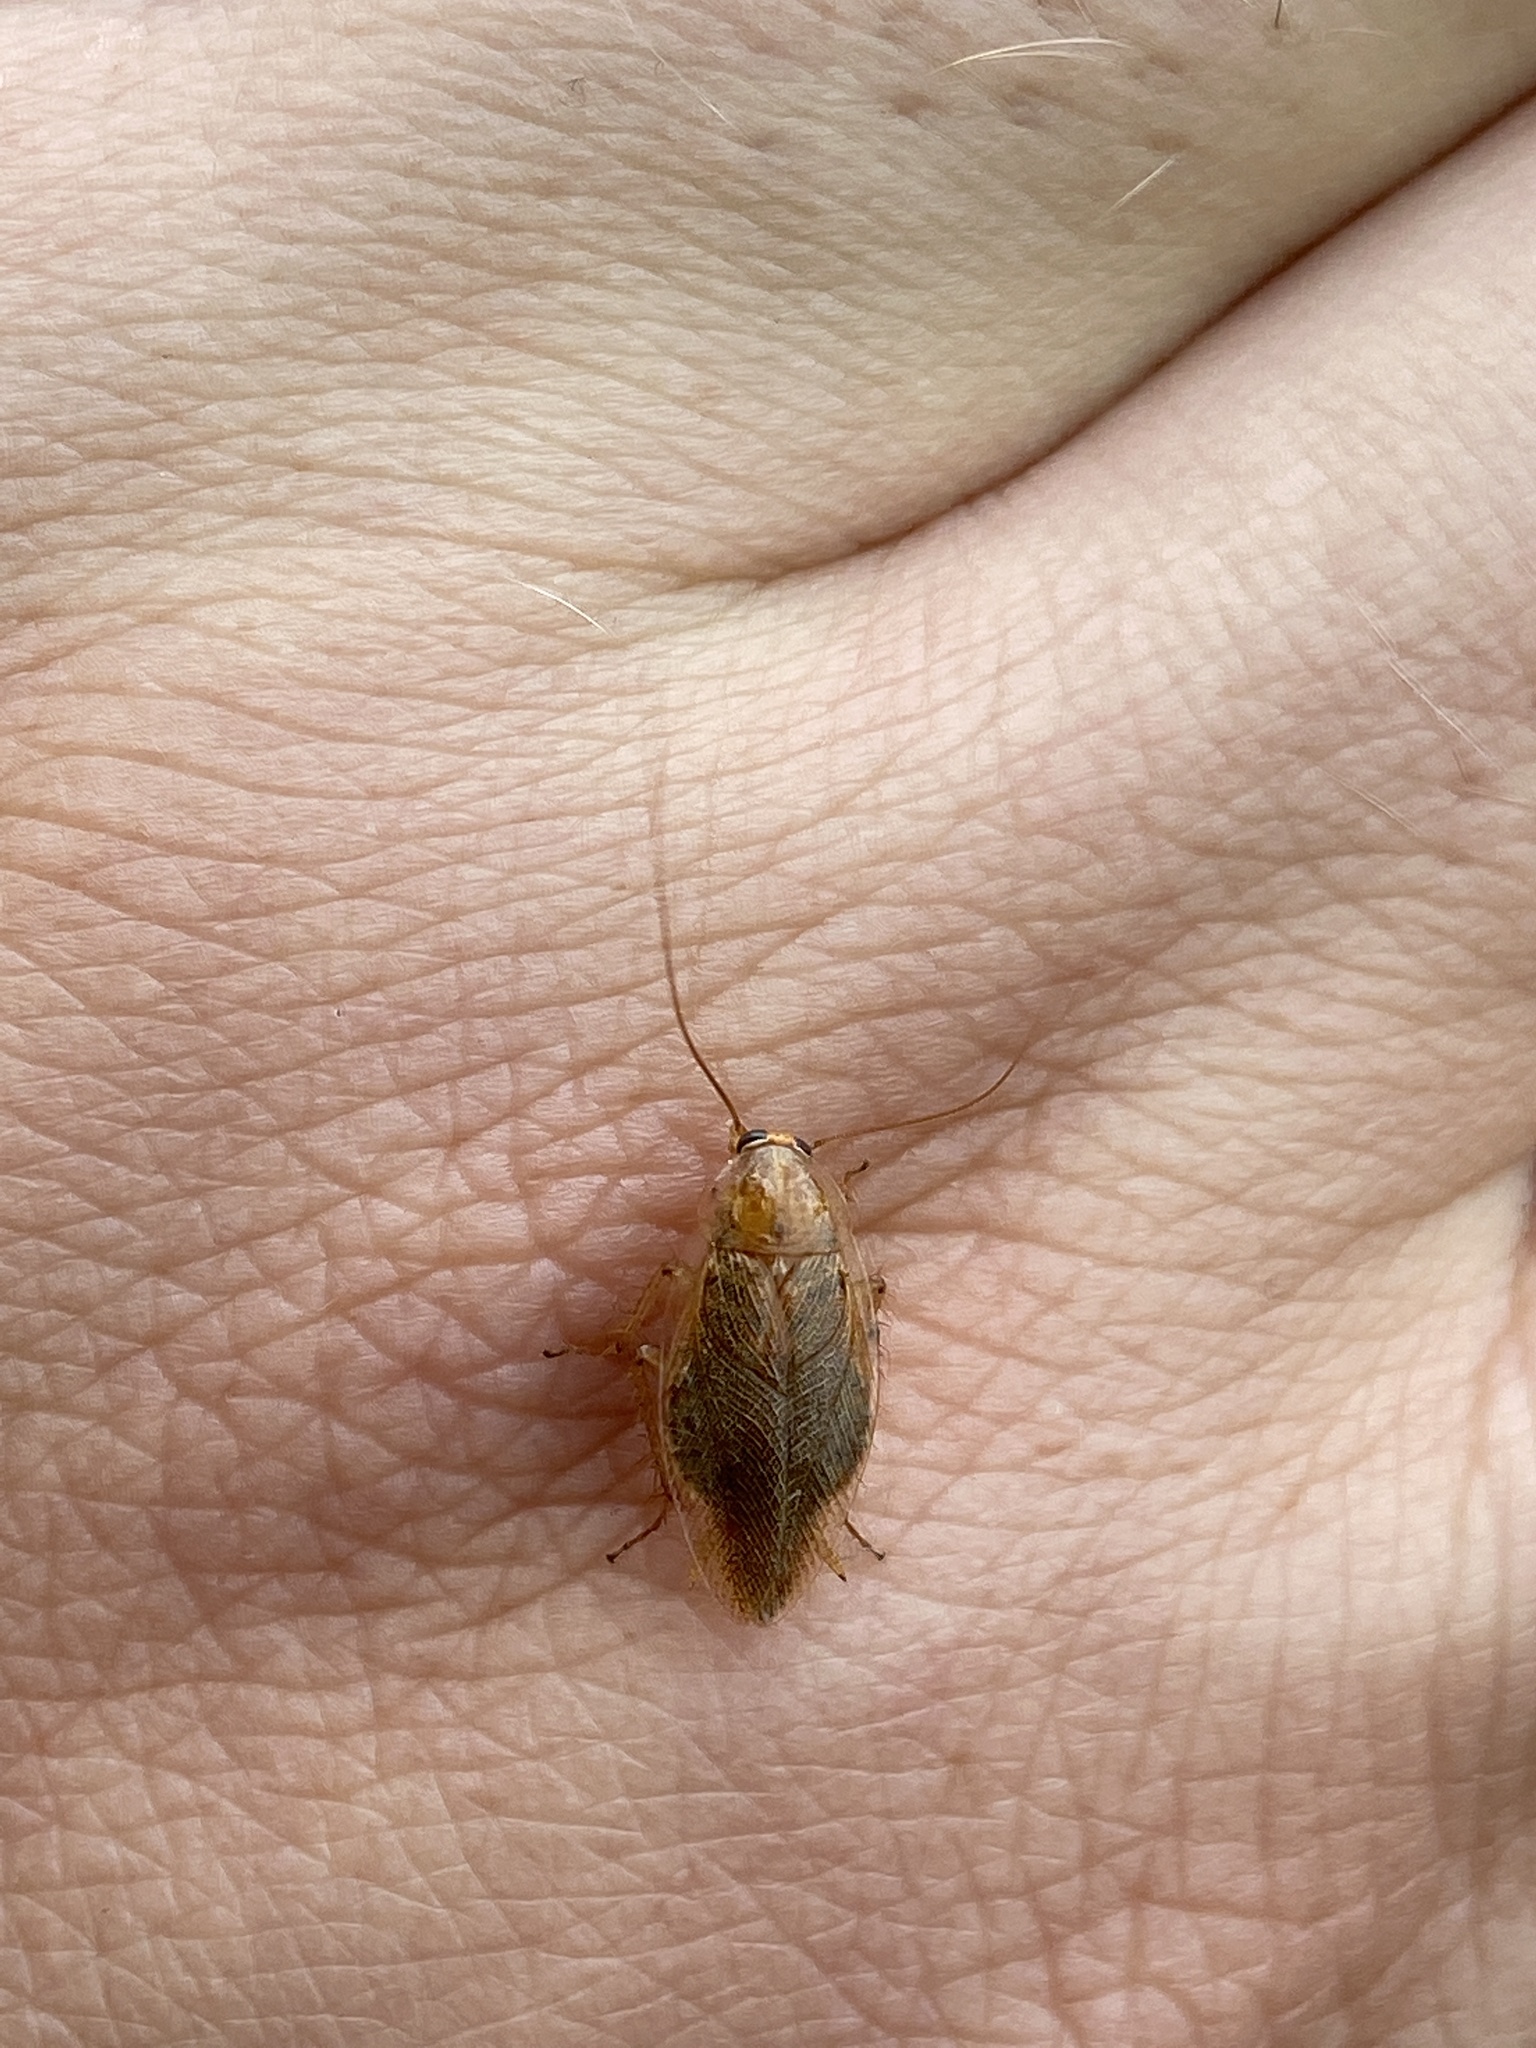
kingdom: Animalia
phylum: Arthropoda
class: Insecta
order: Blattodea
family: Ectobiidae
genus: Ectobius
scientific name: Ectobius vittiventris
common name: Garden cockroach
